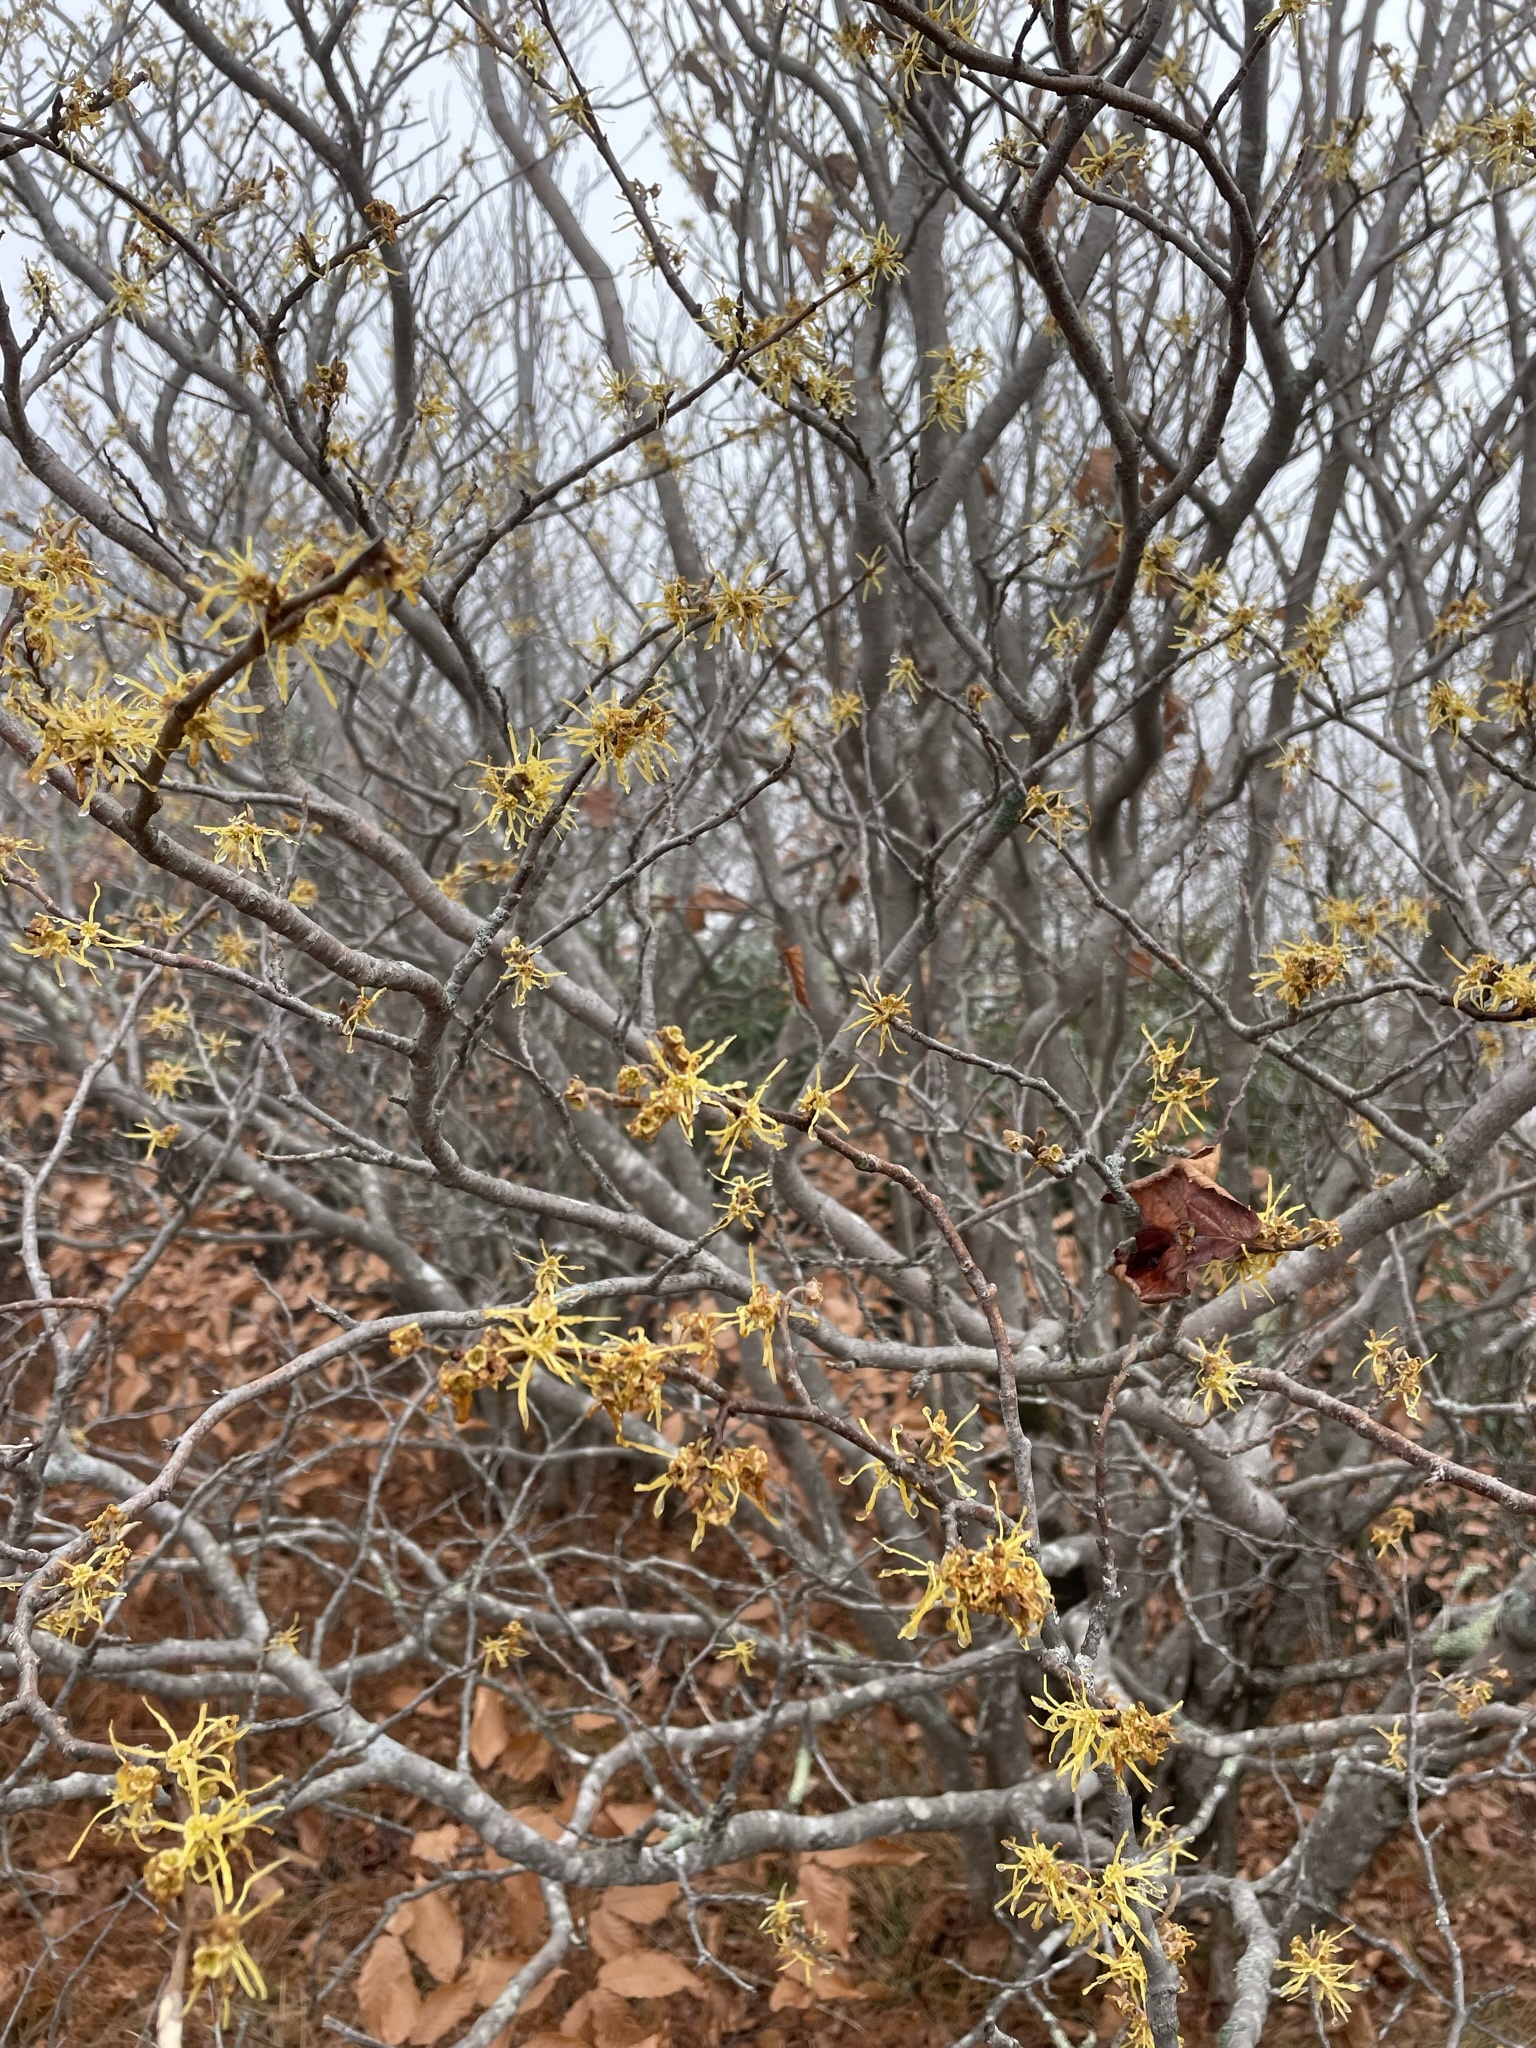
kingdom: Plantae
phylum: Tracheophyta
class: Magnoliopsida
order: Saxifragales
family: Hamamelidaceae
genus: Hamamelis
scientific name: Hamamelis virginiana
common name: Witch-hazel
